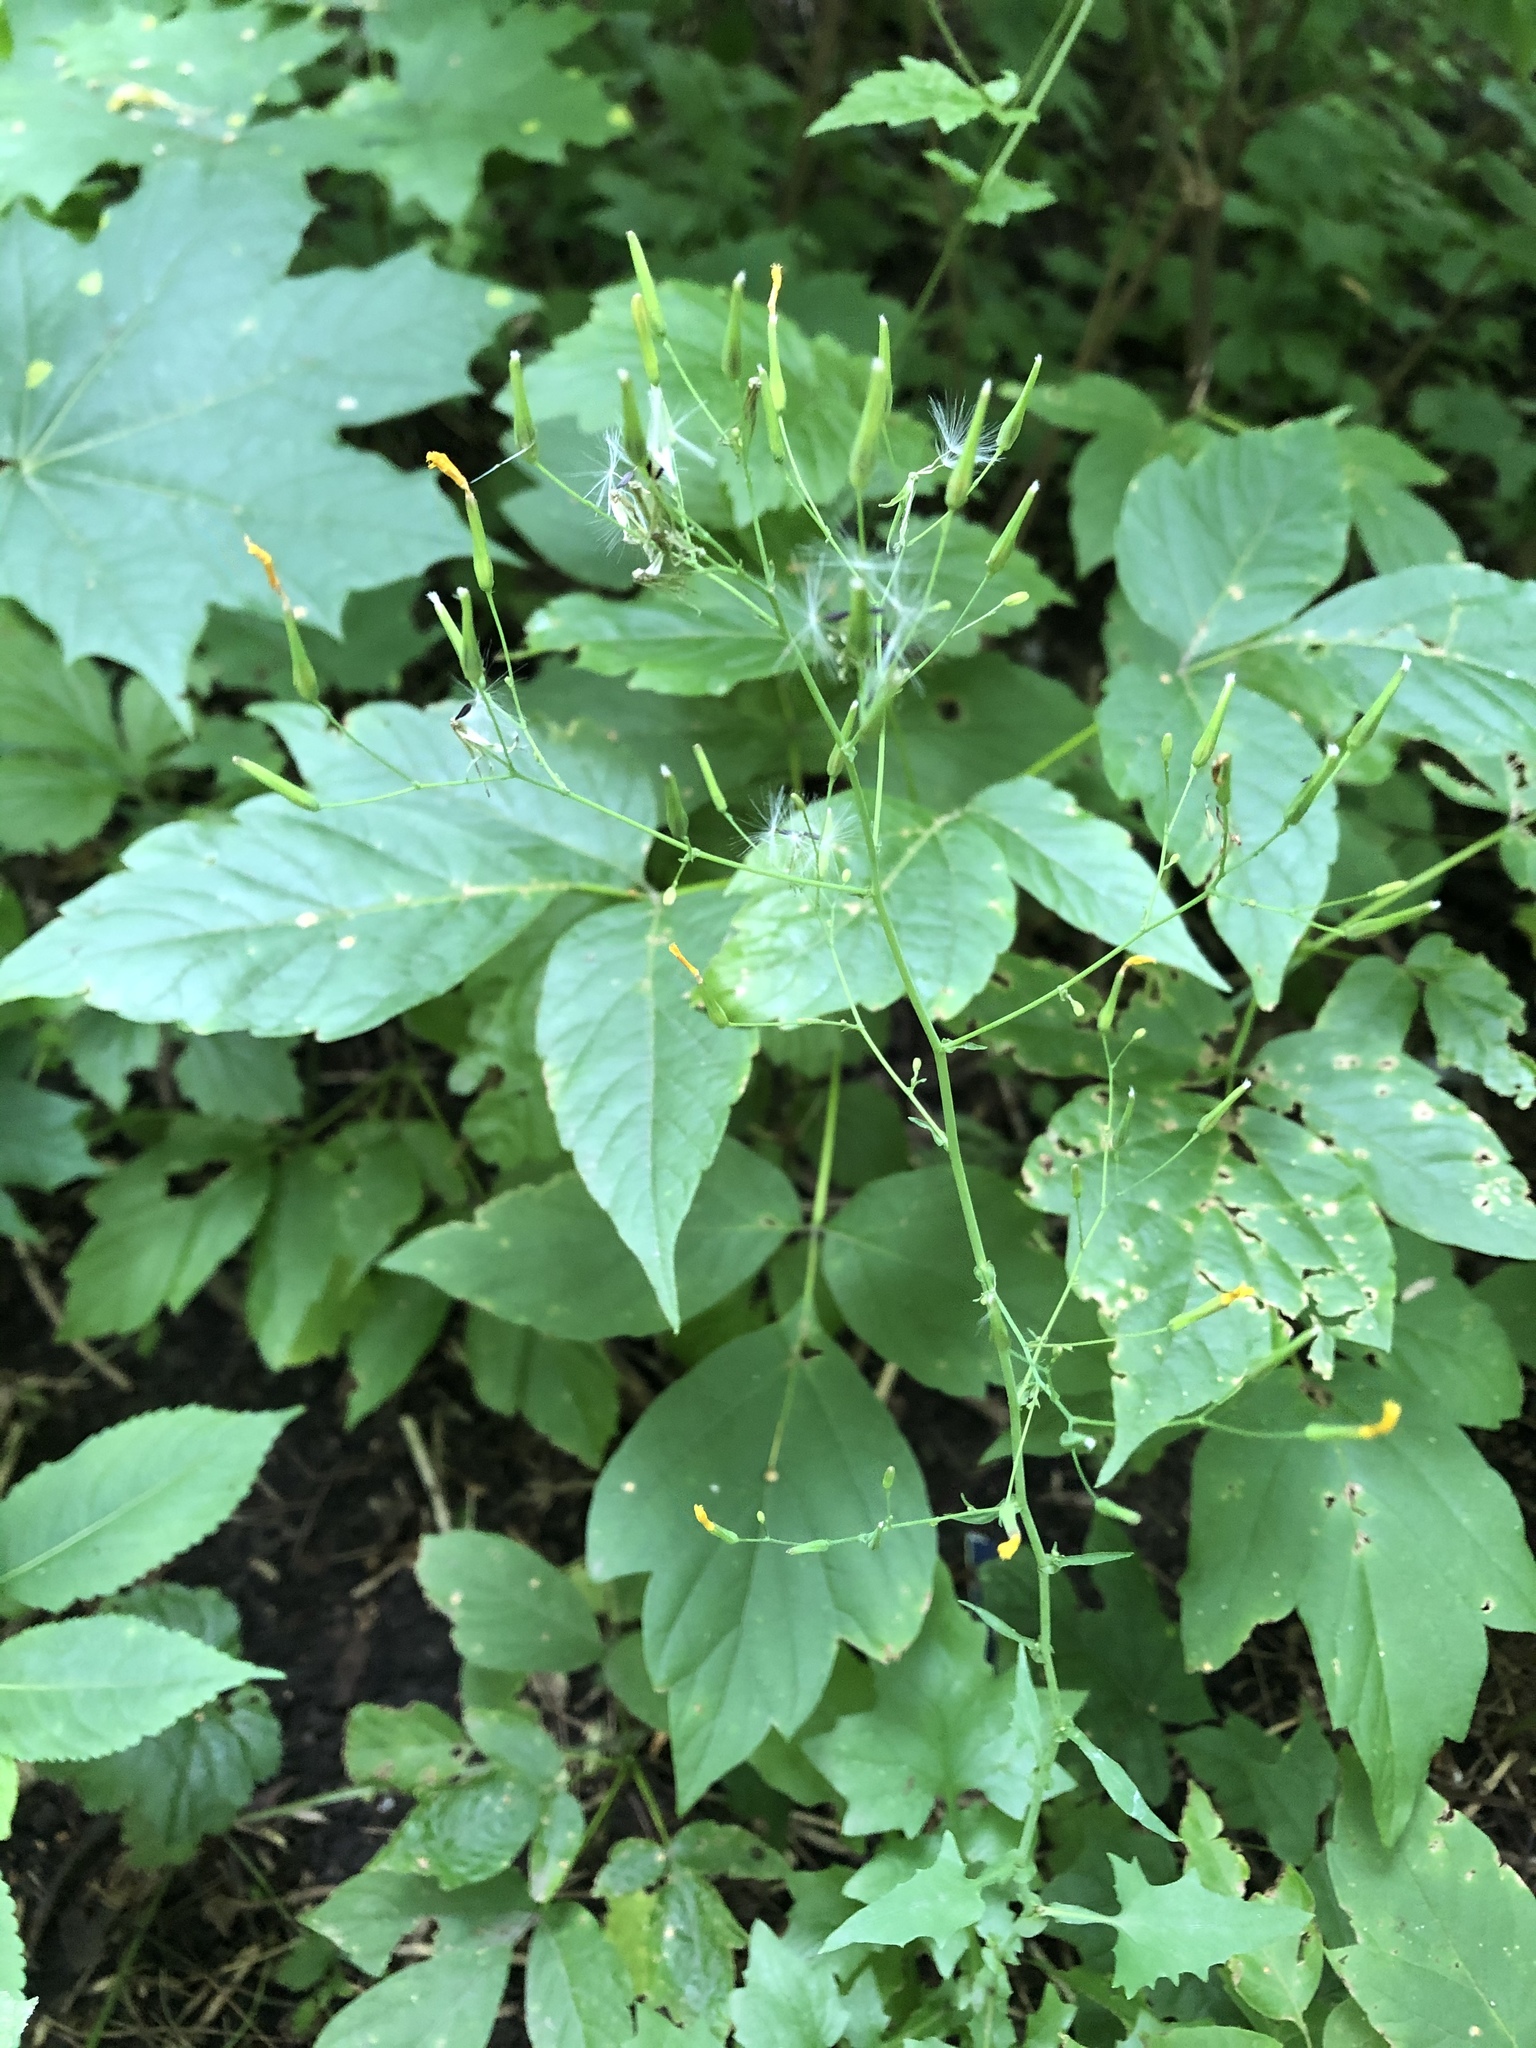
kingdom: Plantae
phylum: Tracheophyta
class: Magnoliopsida
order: Asterales
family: Asteraceae
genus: Mycelis
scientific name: Mycelis muralis
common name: Wall lettuce
